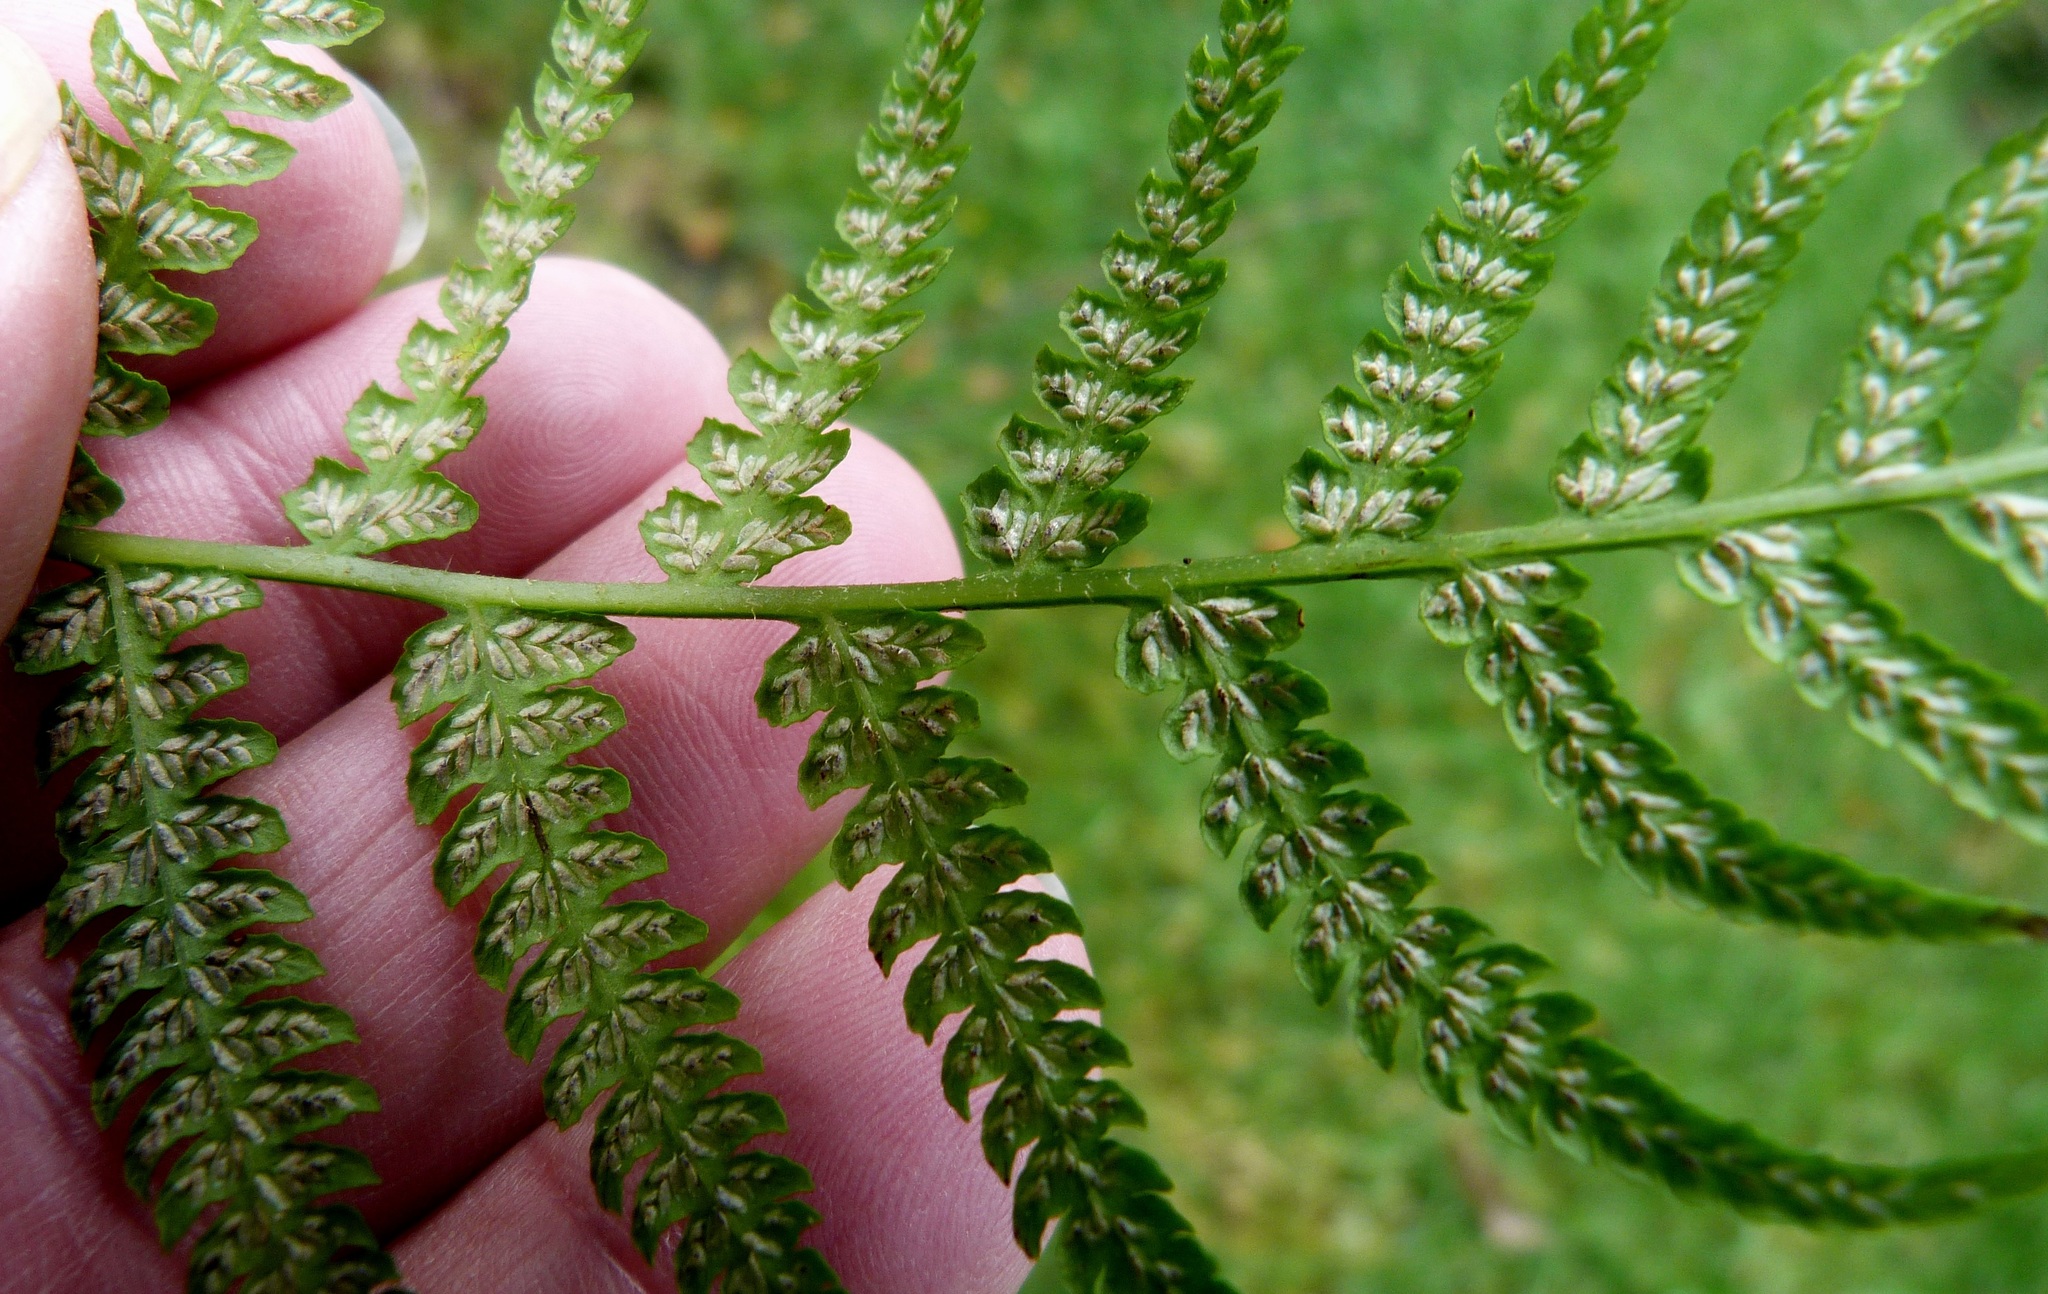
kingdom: Plantae
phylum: Tracheophyta
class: Polypodiopsida
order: Polypodiales
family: Athyriaceae
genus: Deparia
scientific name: Deparia petersenii
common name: Japanese false spleenwort
